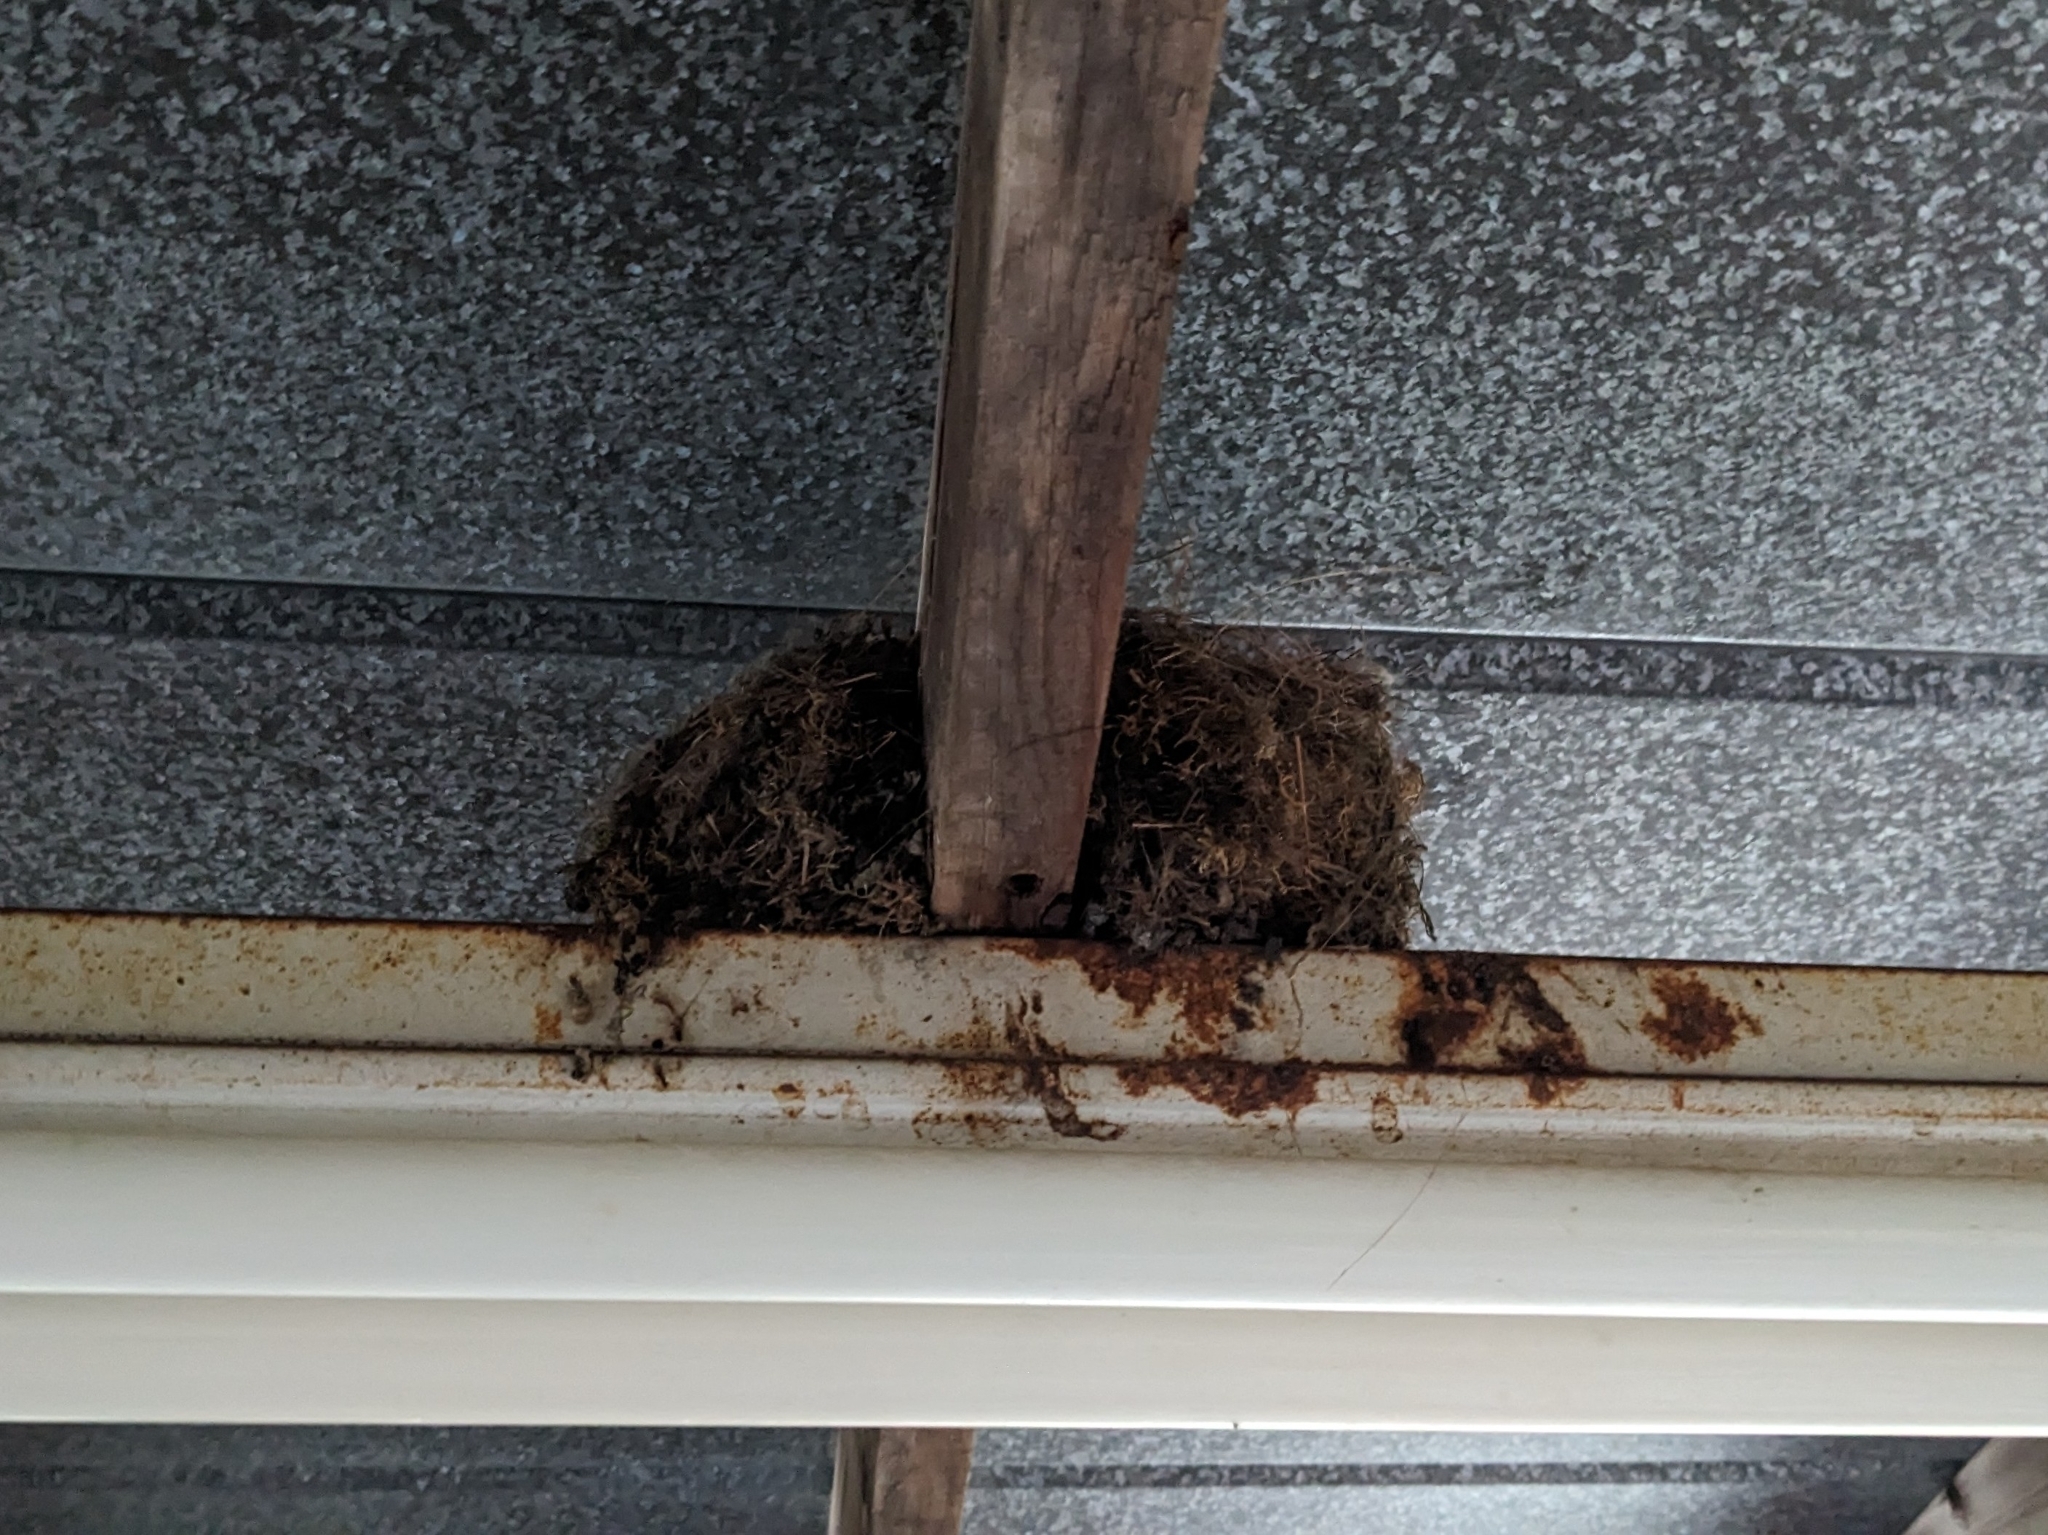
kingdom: Animalia
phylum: Chordata
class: Aves
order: Passeriformes
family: Tyrannidae
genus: Sayornis
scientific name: Sayornis phoebe
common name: Eastern phoebe
